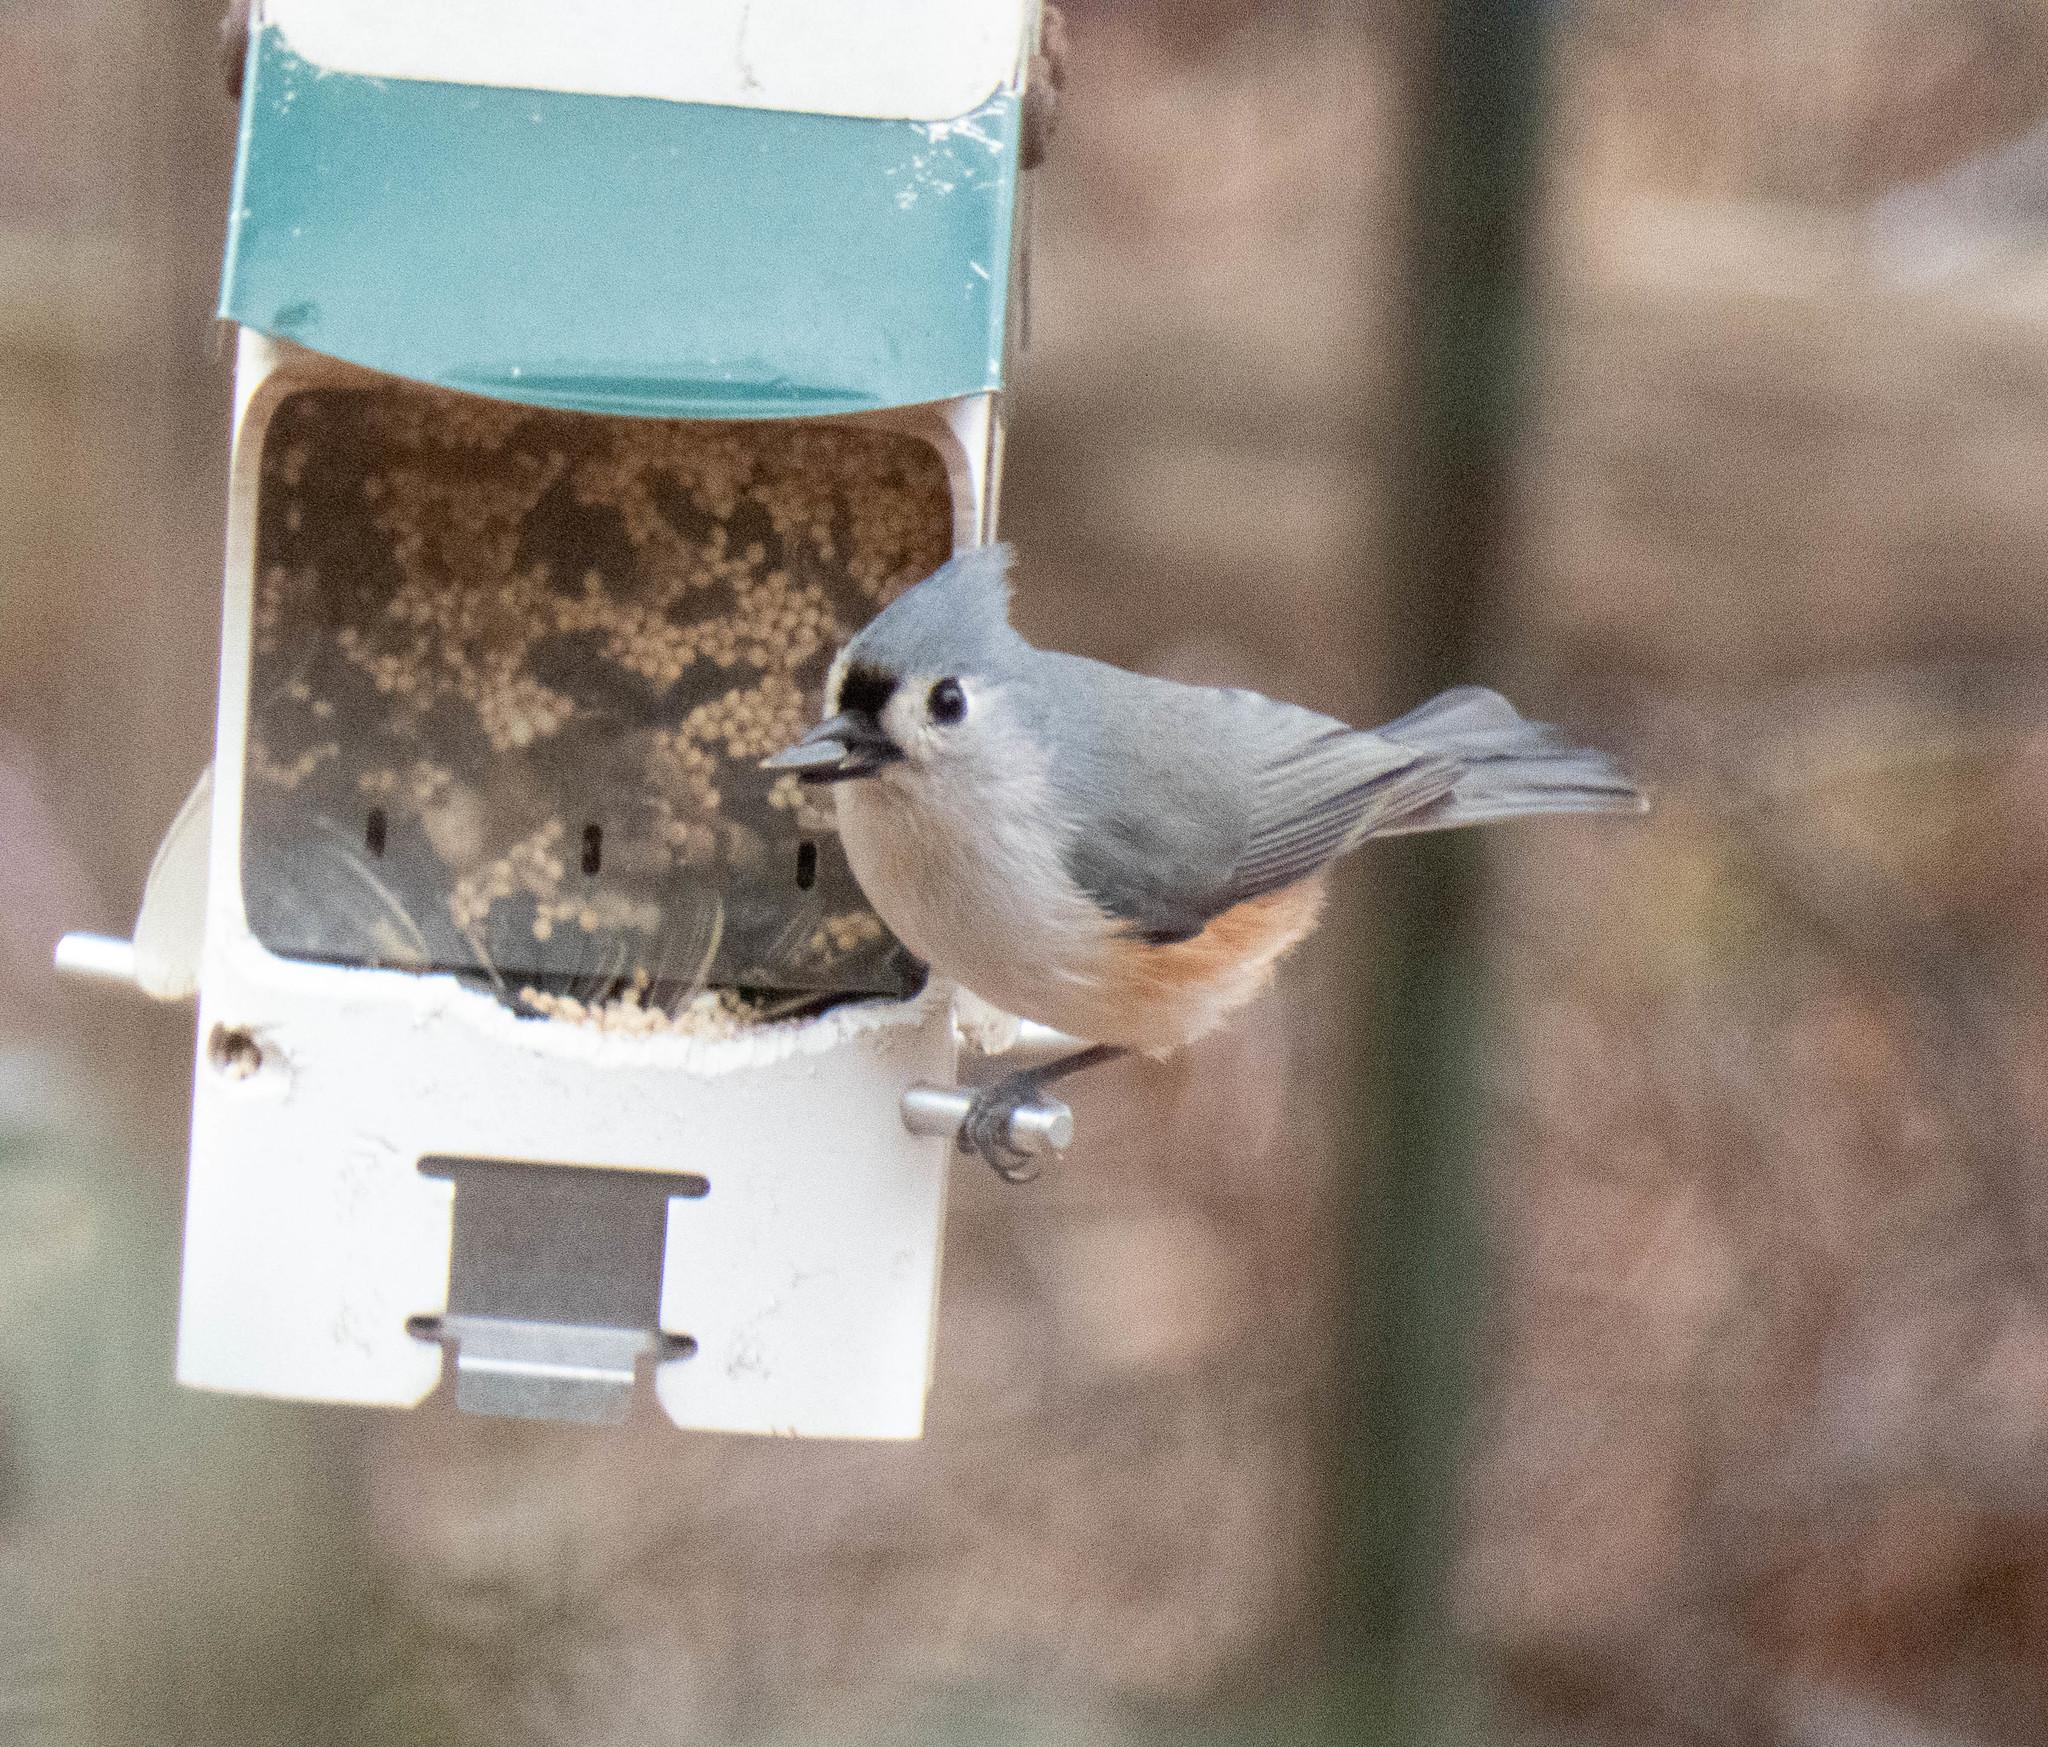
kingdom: Animalia
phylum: Chordata
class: Aves
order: Passeriformes
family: Paridae
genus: Baeolophus
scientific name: Baeolophus bicolor
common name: Tufted titmouse
